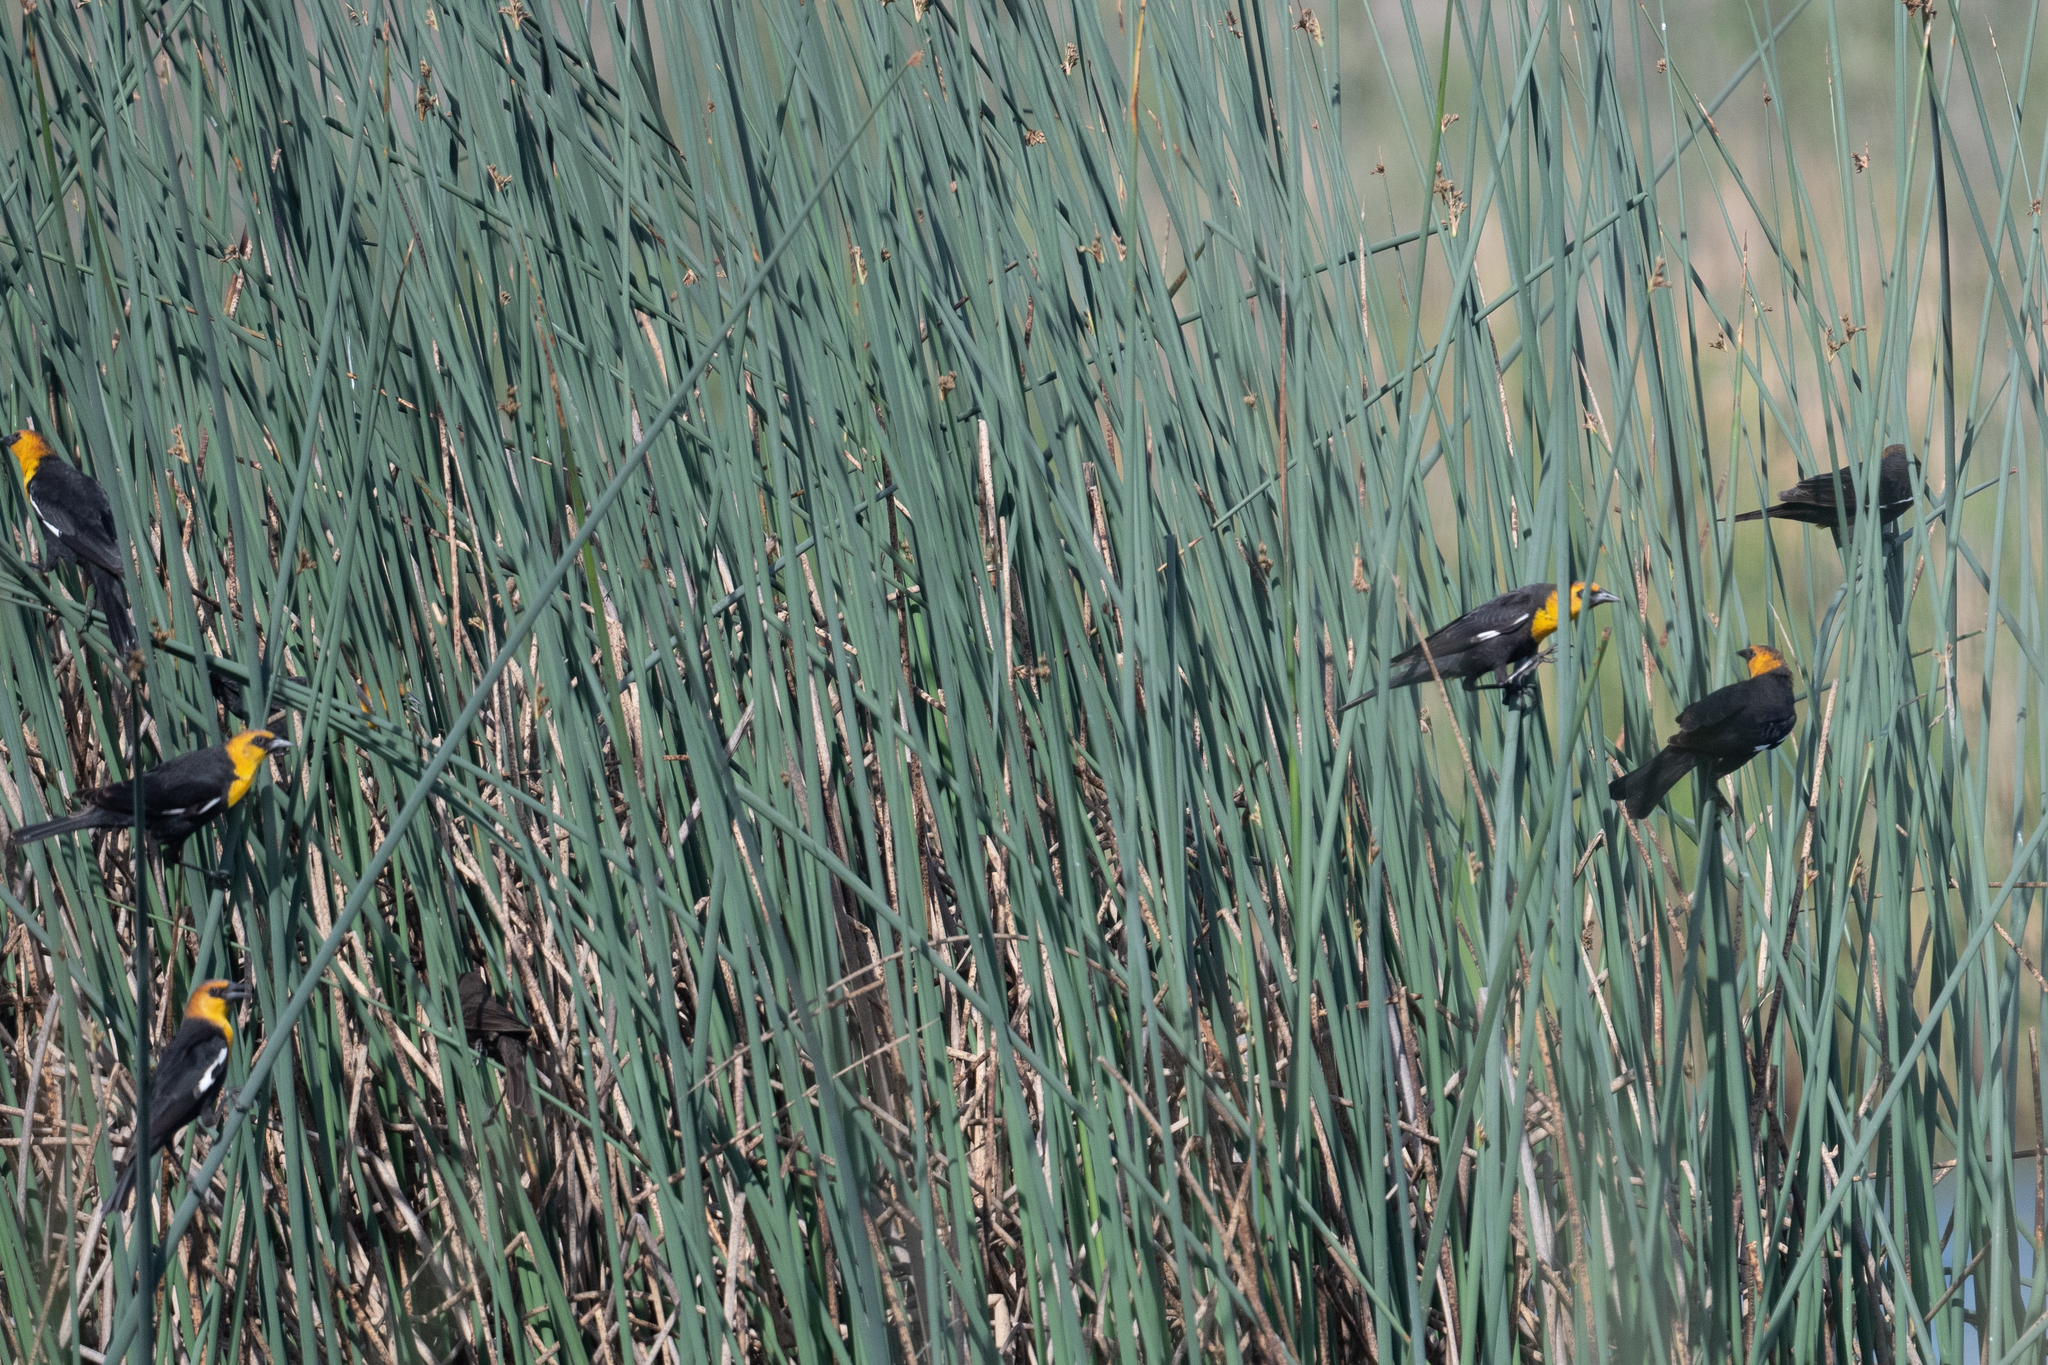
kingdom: Animalia
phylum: Chordata
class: Aves
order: Passeriformes
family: Icteridae
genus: Xanthocephalus
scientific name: Xanthocephalus xanthocephalus
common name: Yellow-headed blackbird
